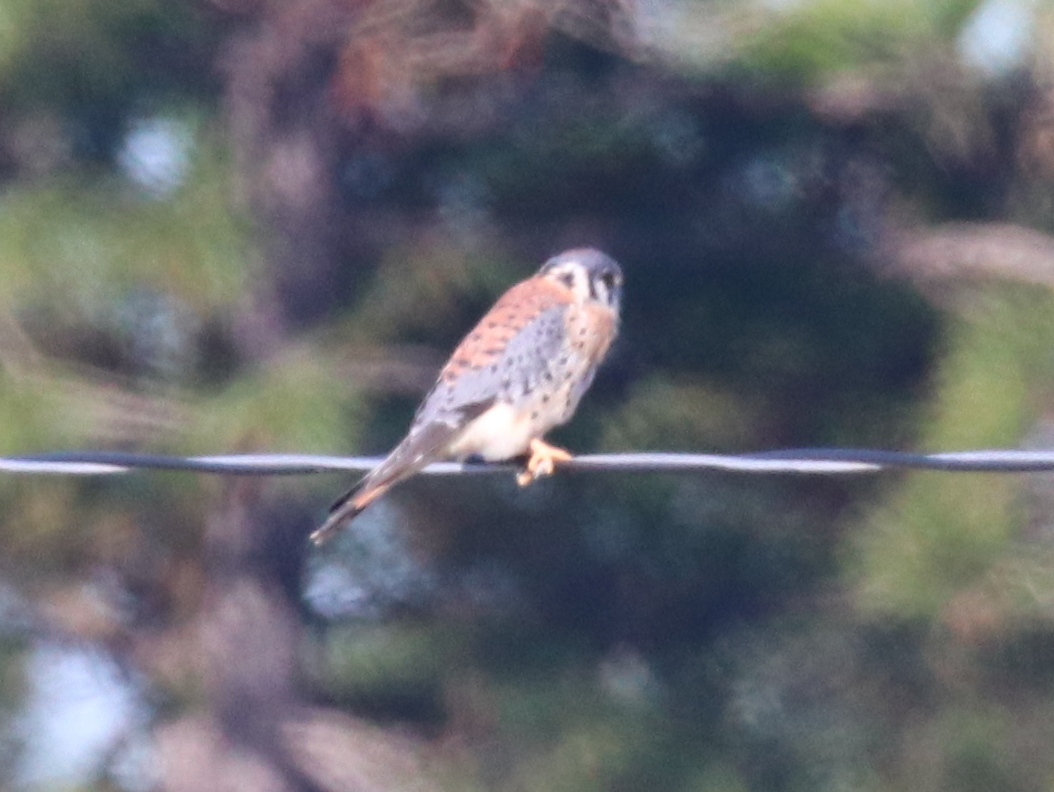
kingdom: Animalia
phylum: Chordata
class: Aves
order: Falconiformes
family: Falconidae
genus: Falco
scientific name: Falco sparverius
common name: American kestrel
